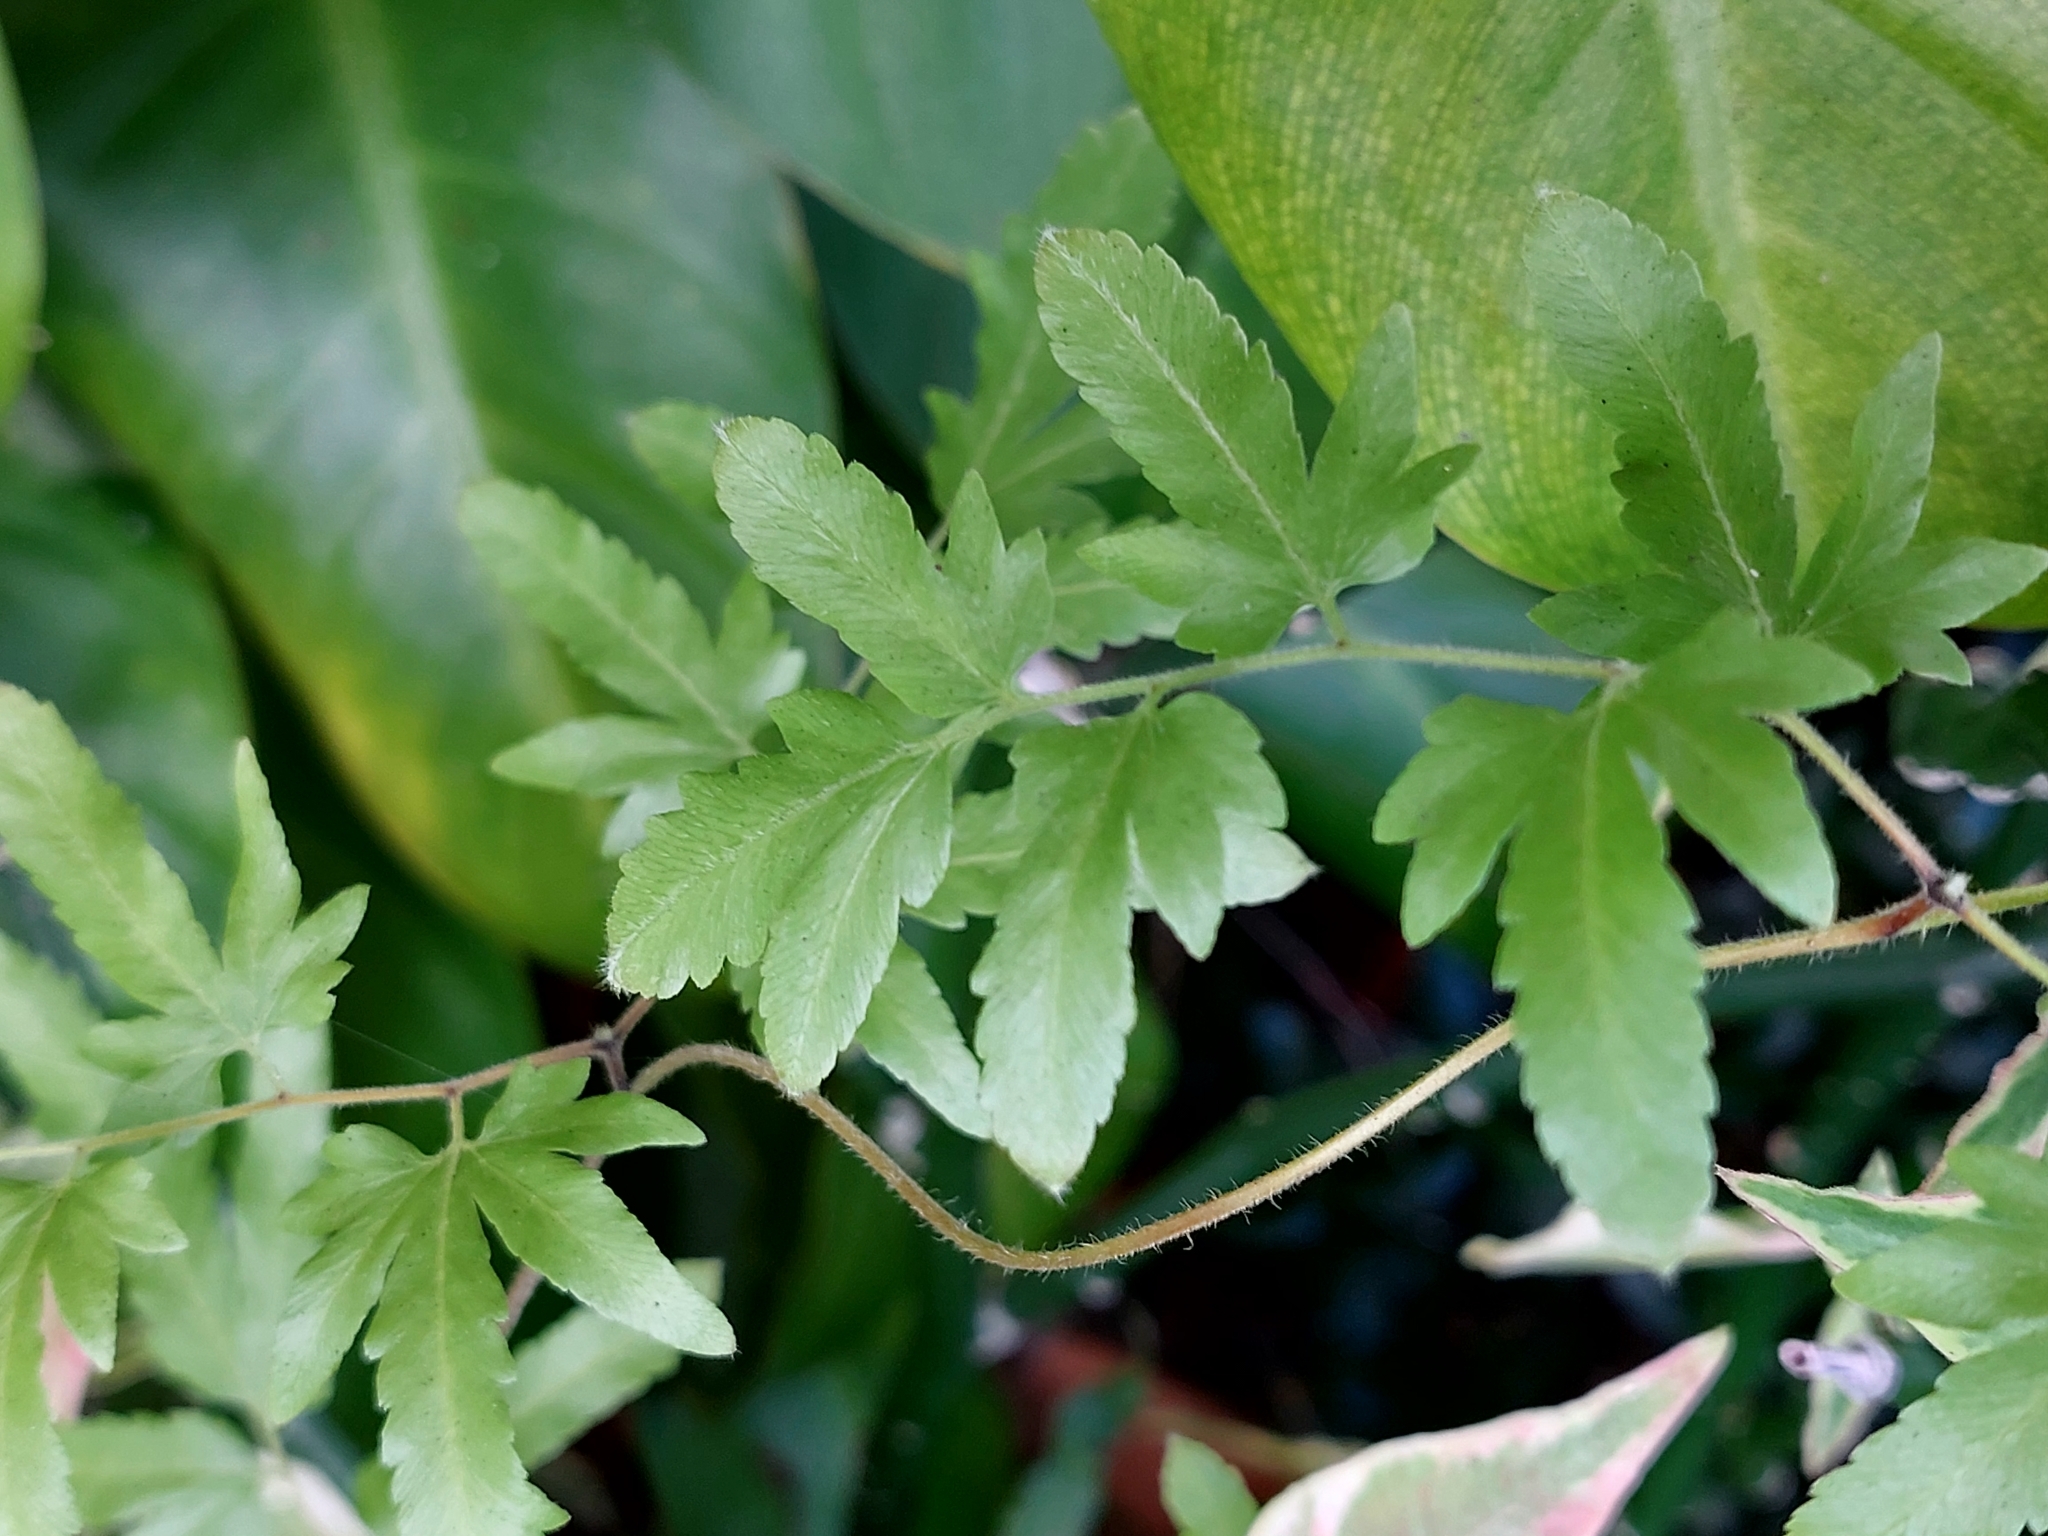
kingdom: Plantae
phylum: Tracheophyta
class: Polypodiopsida
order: Schizaeales
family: Lygodiaceae
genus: Lygodium
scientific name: Lygodium venustum
